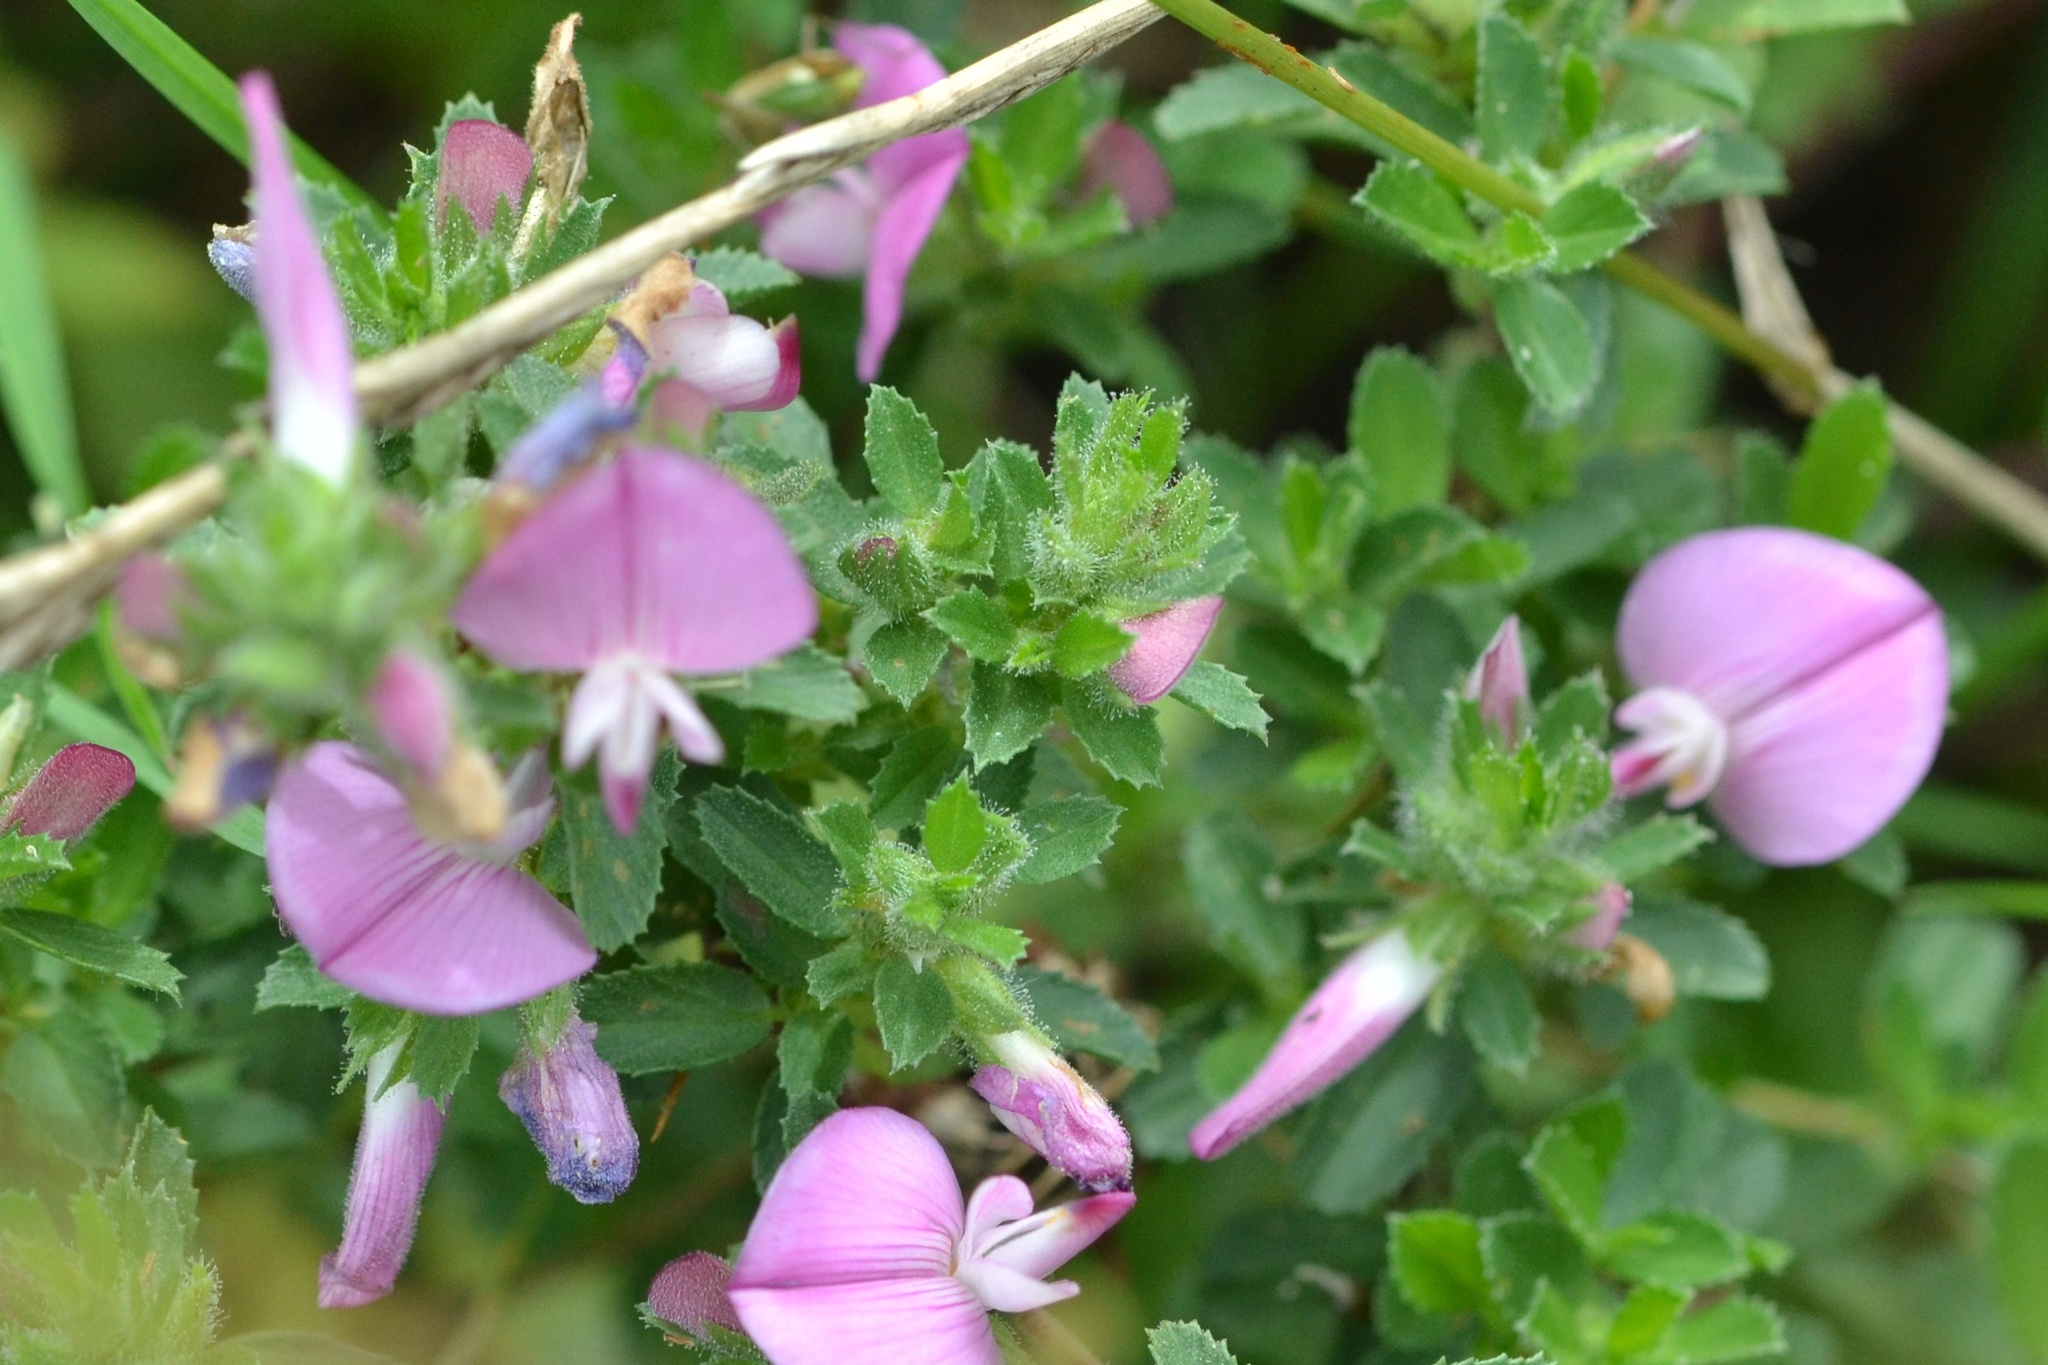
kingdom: Plantae
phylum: Tracheophyta
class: Magnoliopsida
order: Fabales
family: Fabaceae
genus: Ononis
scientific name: Ononis spinosa
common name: Spiny restharrow
